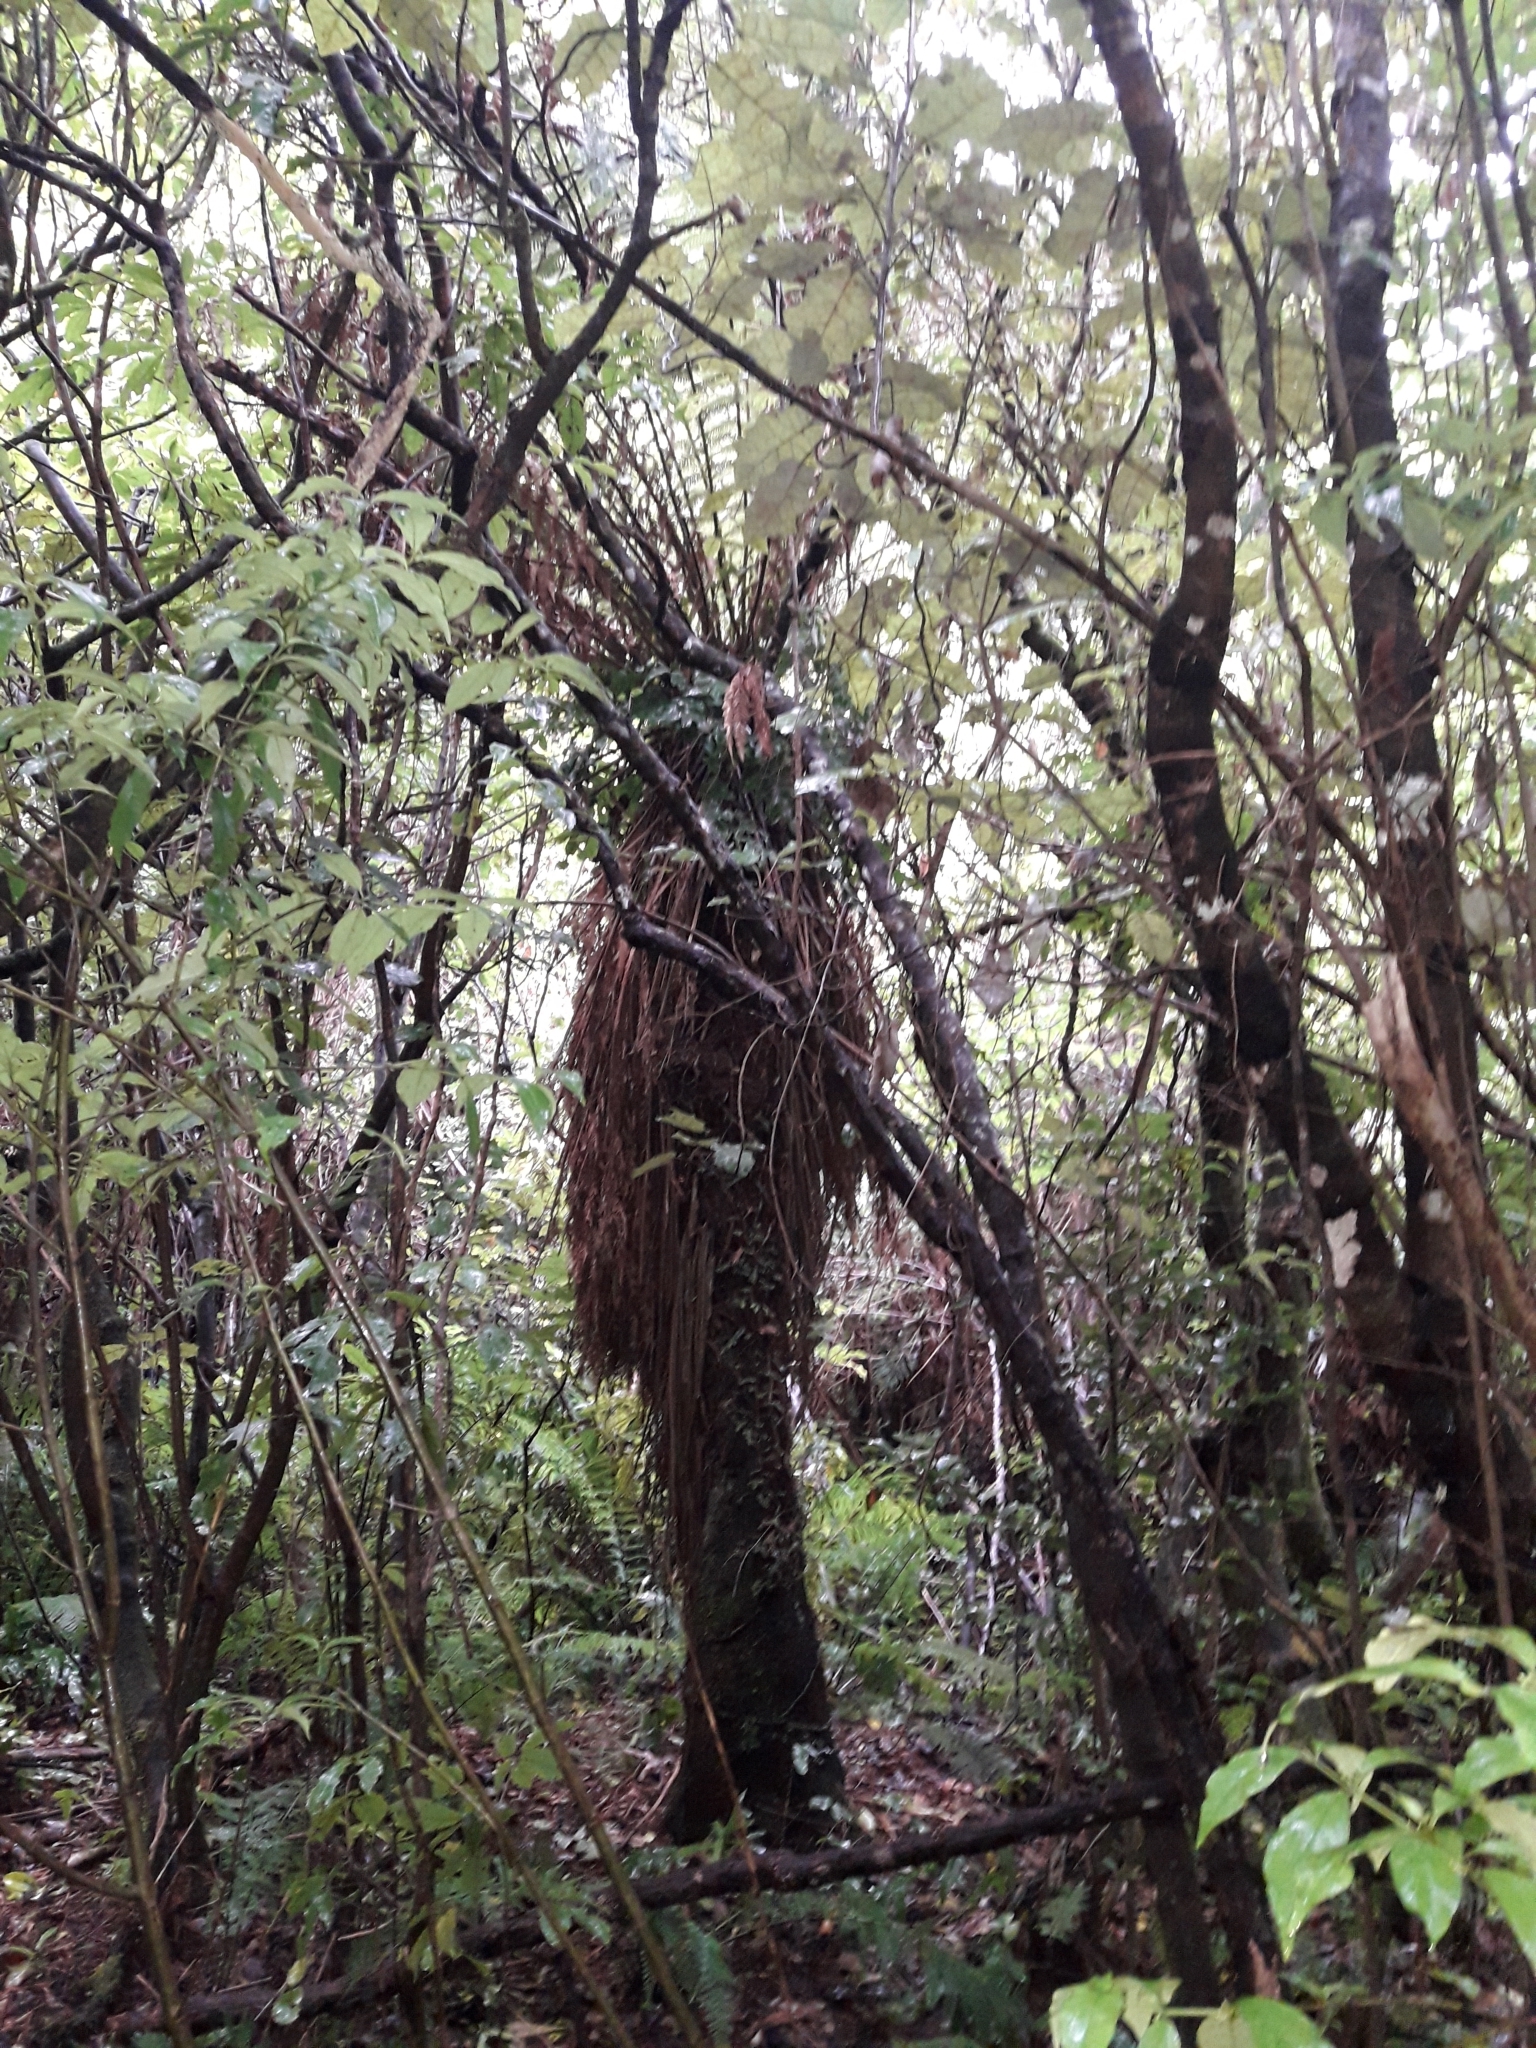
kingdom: Plantae
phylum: Tracheophyta
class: Polypodiopsida
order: Cyatheales
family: Dicksoniaceae
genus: Dicksonia
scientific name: Dicksonia fibrosa
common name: Golden tree fern
